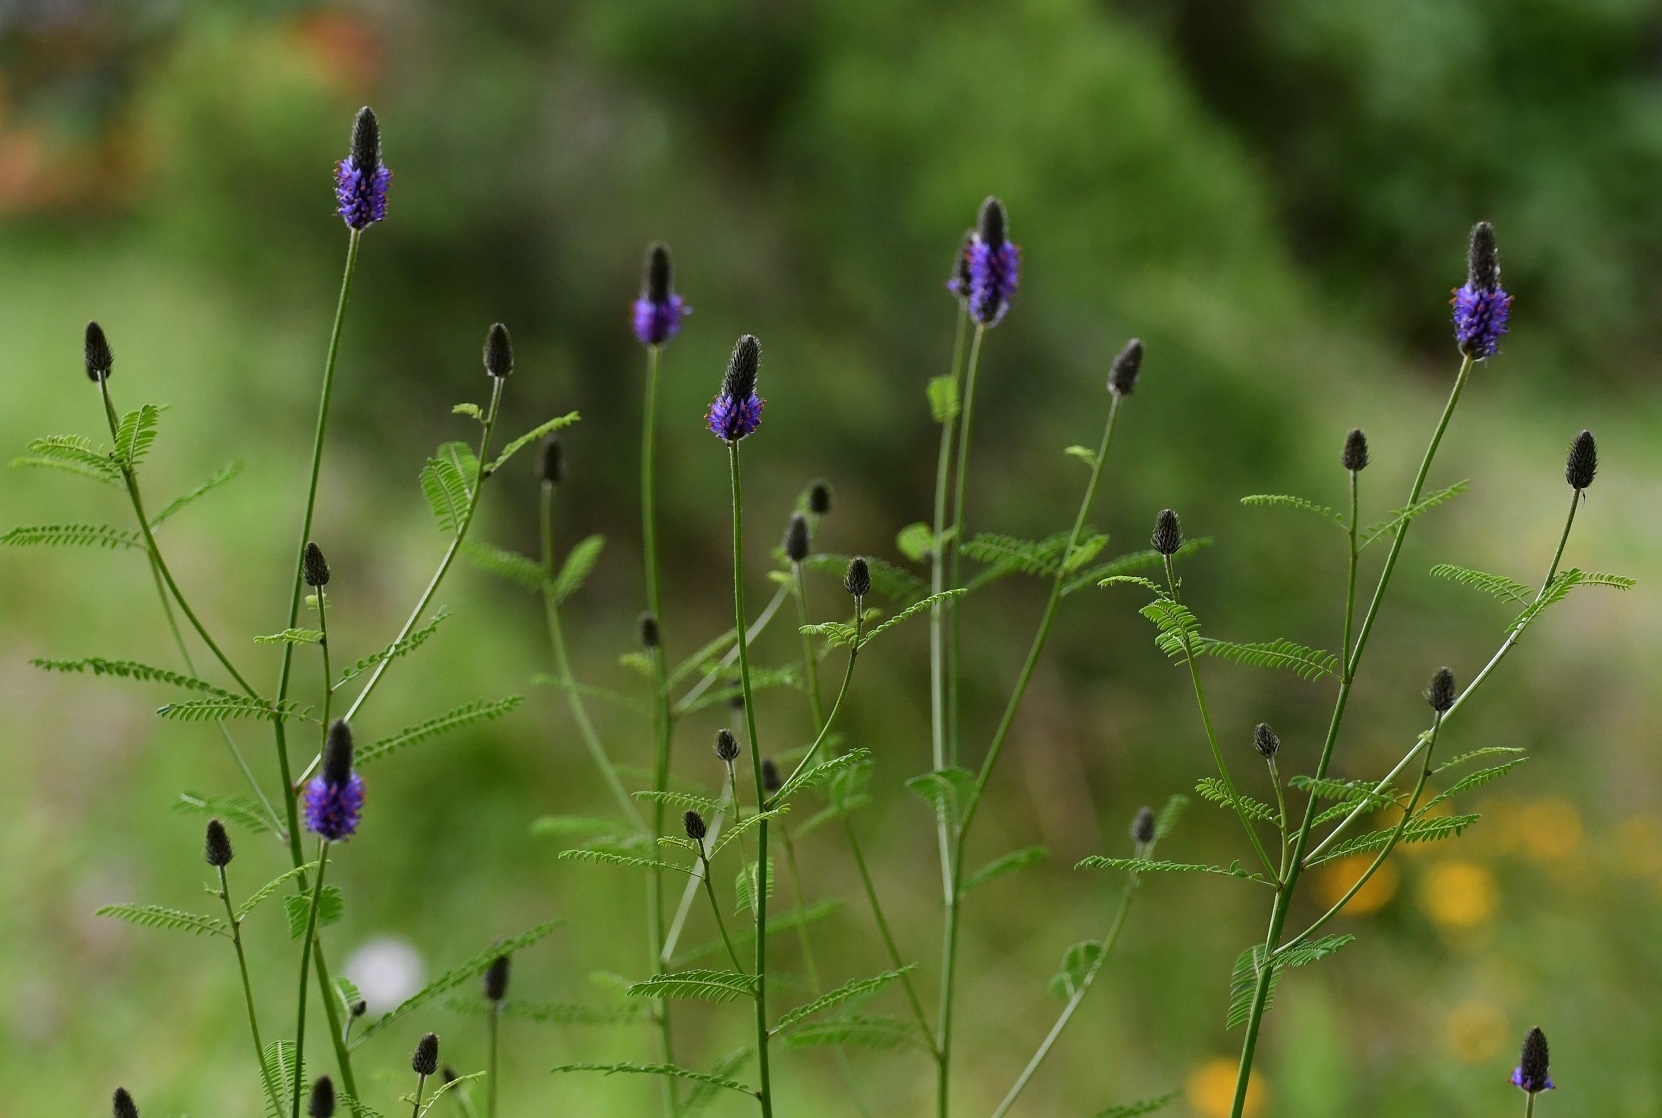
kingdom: Plantae
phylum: Tracheophyta
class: Magnoliopsida
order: Fabales
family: Fabaceae
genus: Dalea
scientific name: Dalea leporina
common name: Foxtail dalea
